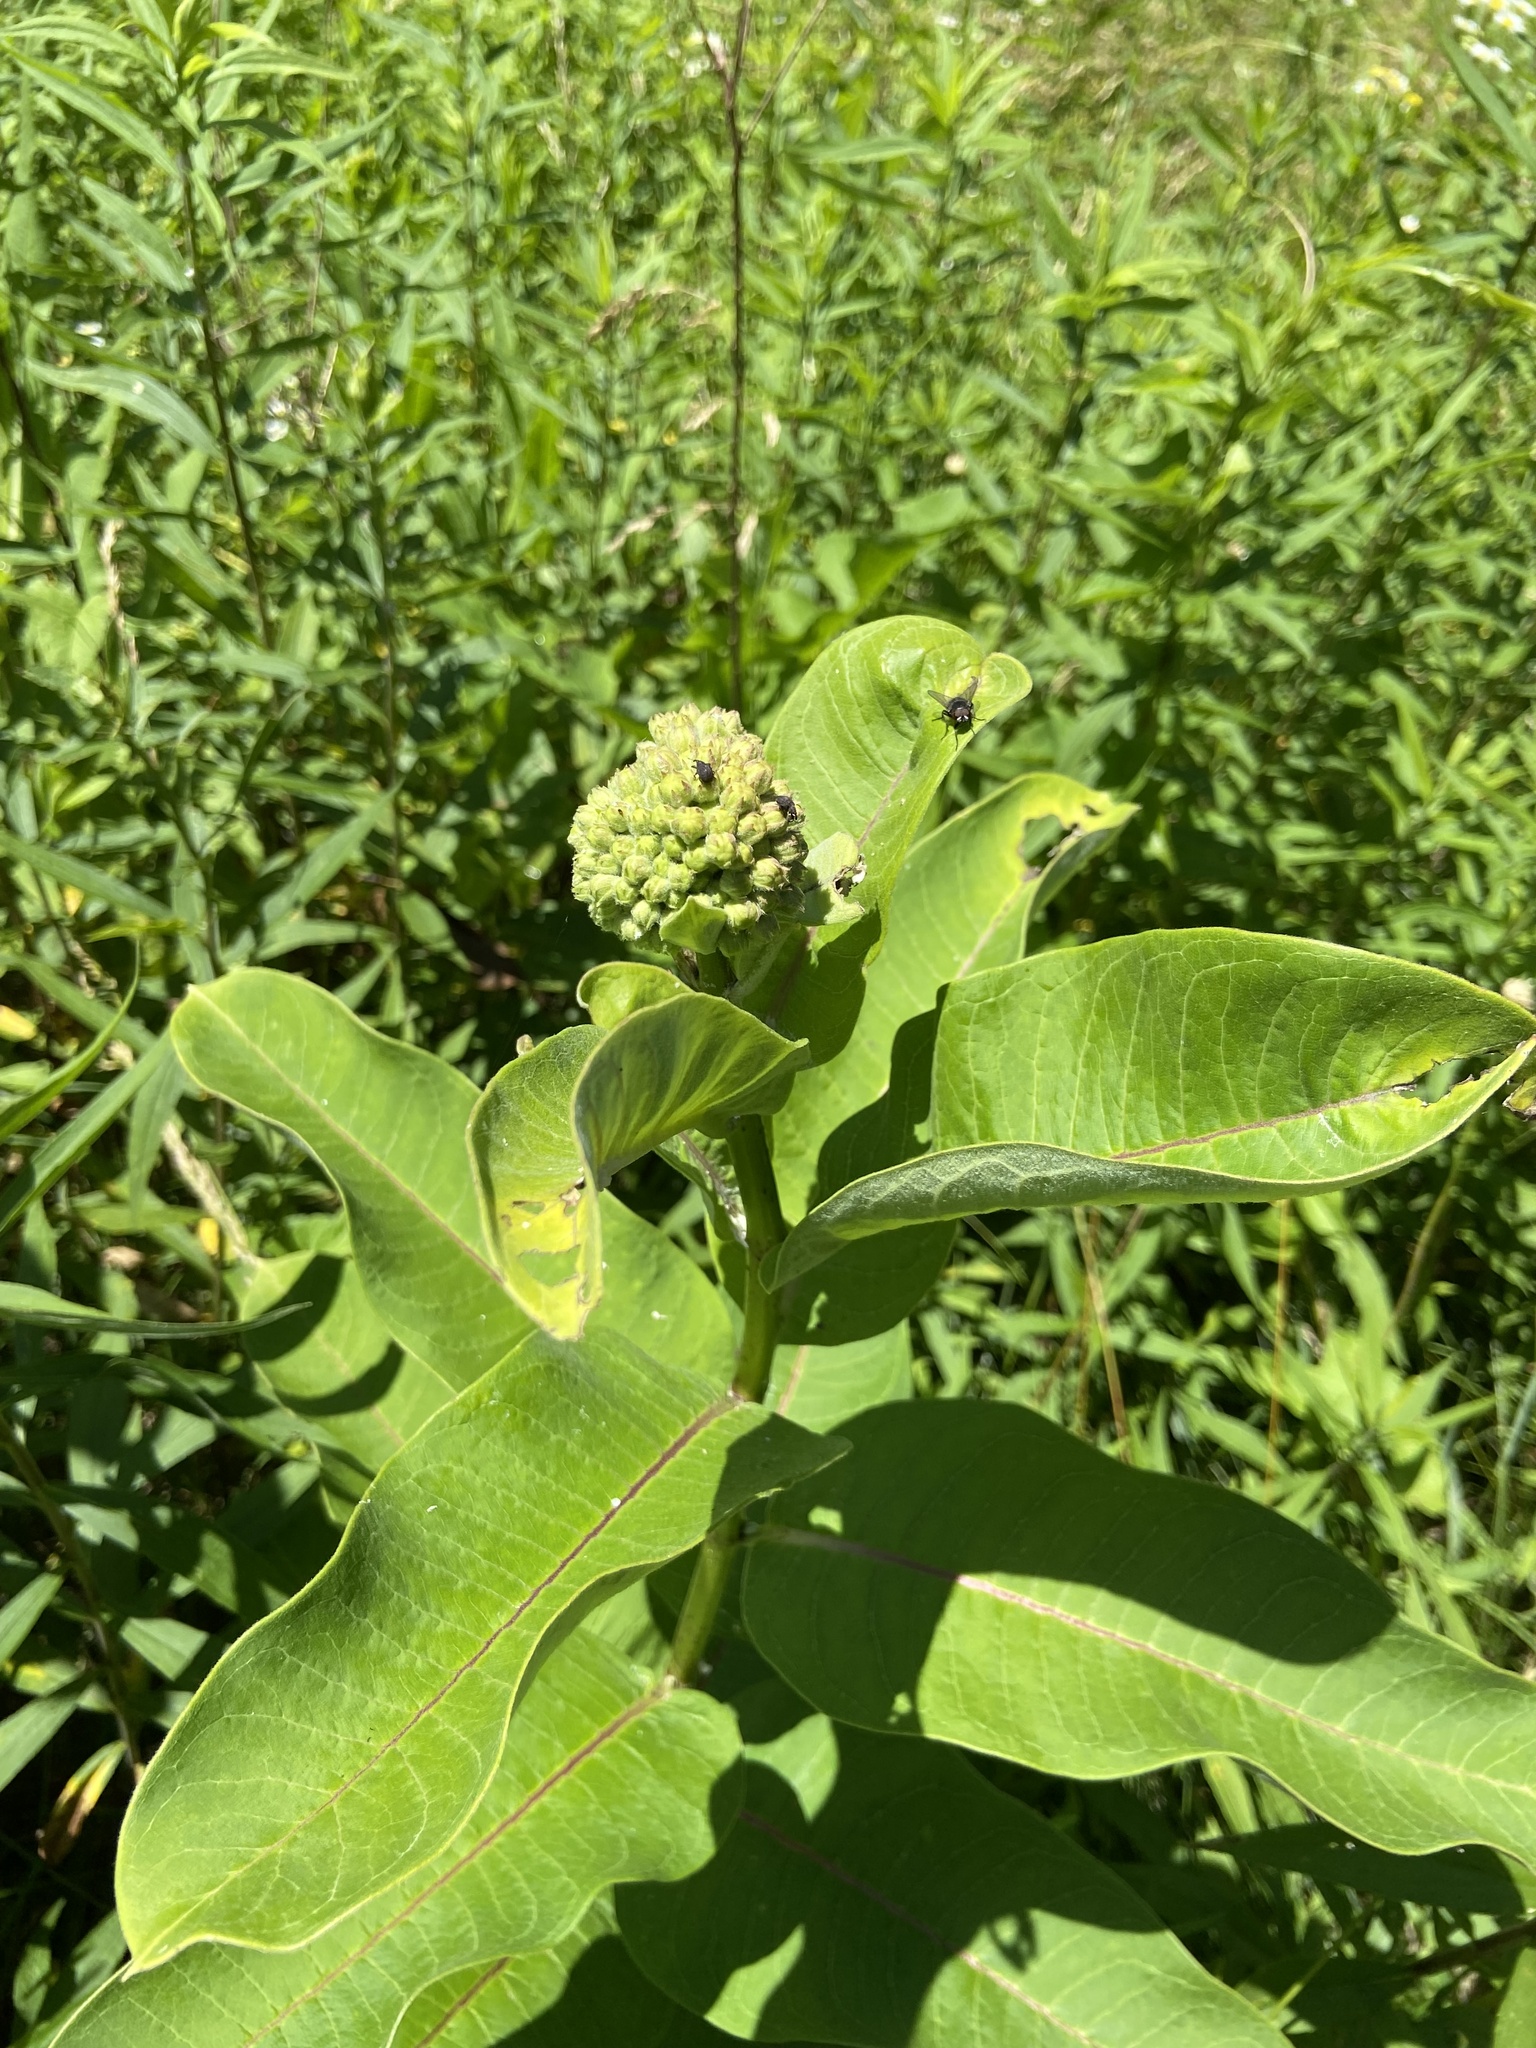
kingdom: Plantae
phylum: Tracheophyta
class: Magnoliopsida
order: Gentianales
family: Apocynaceae
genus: Asclepias
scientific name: Asclepias syriaca
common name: Common milkweed
